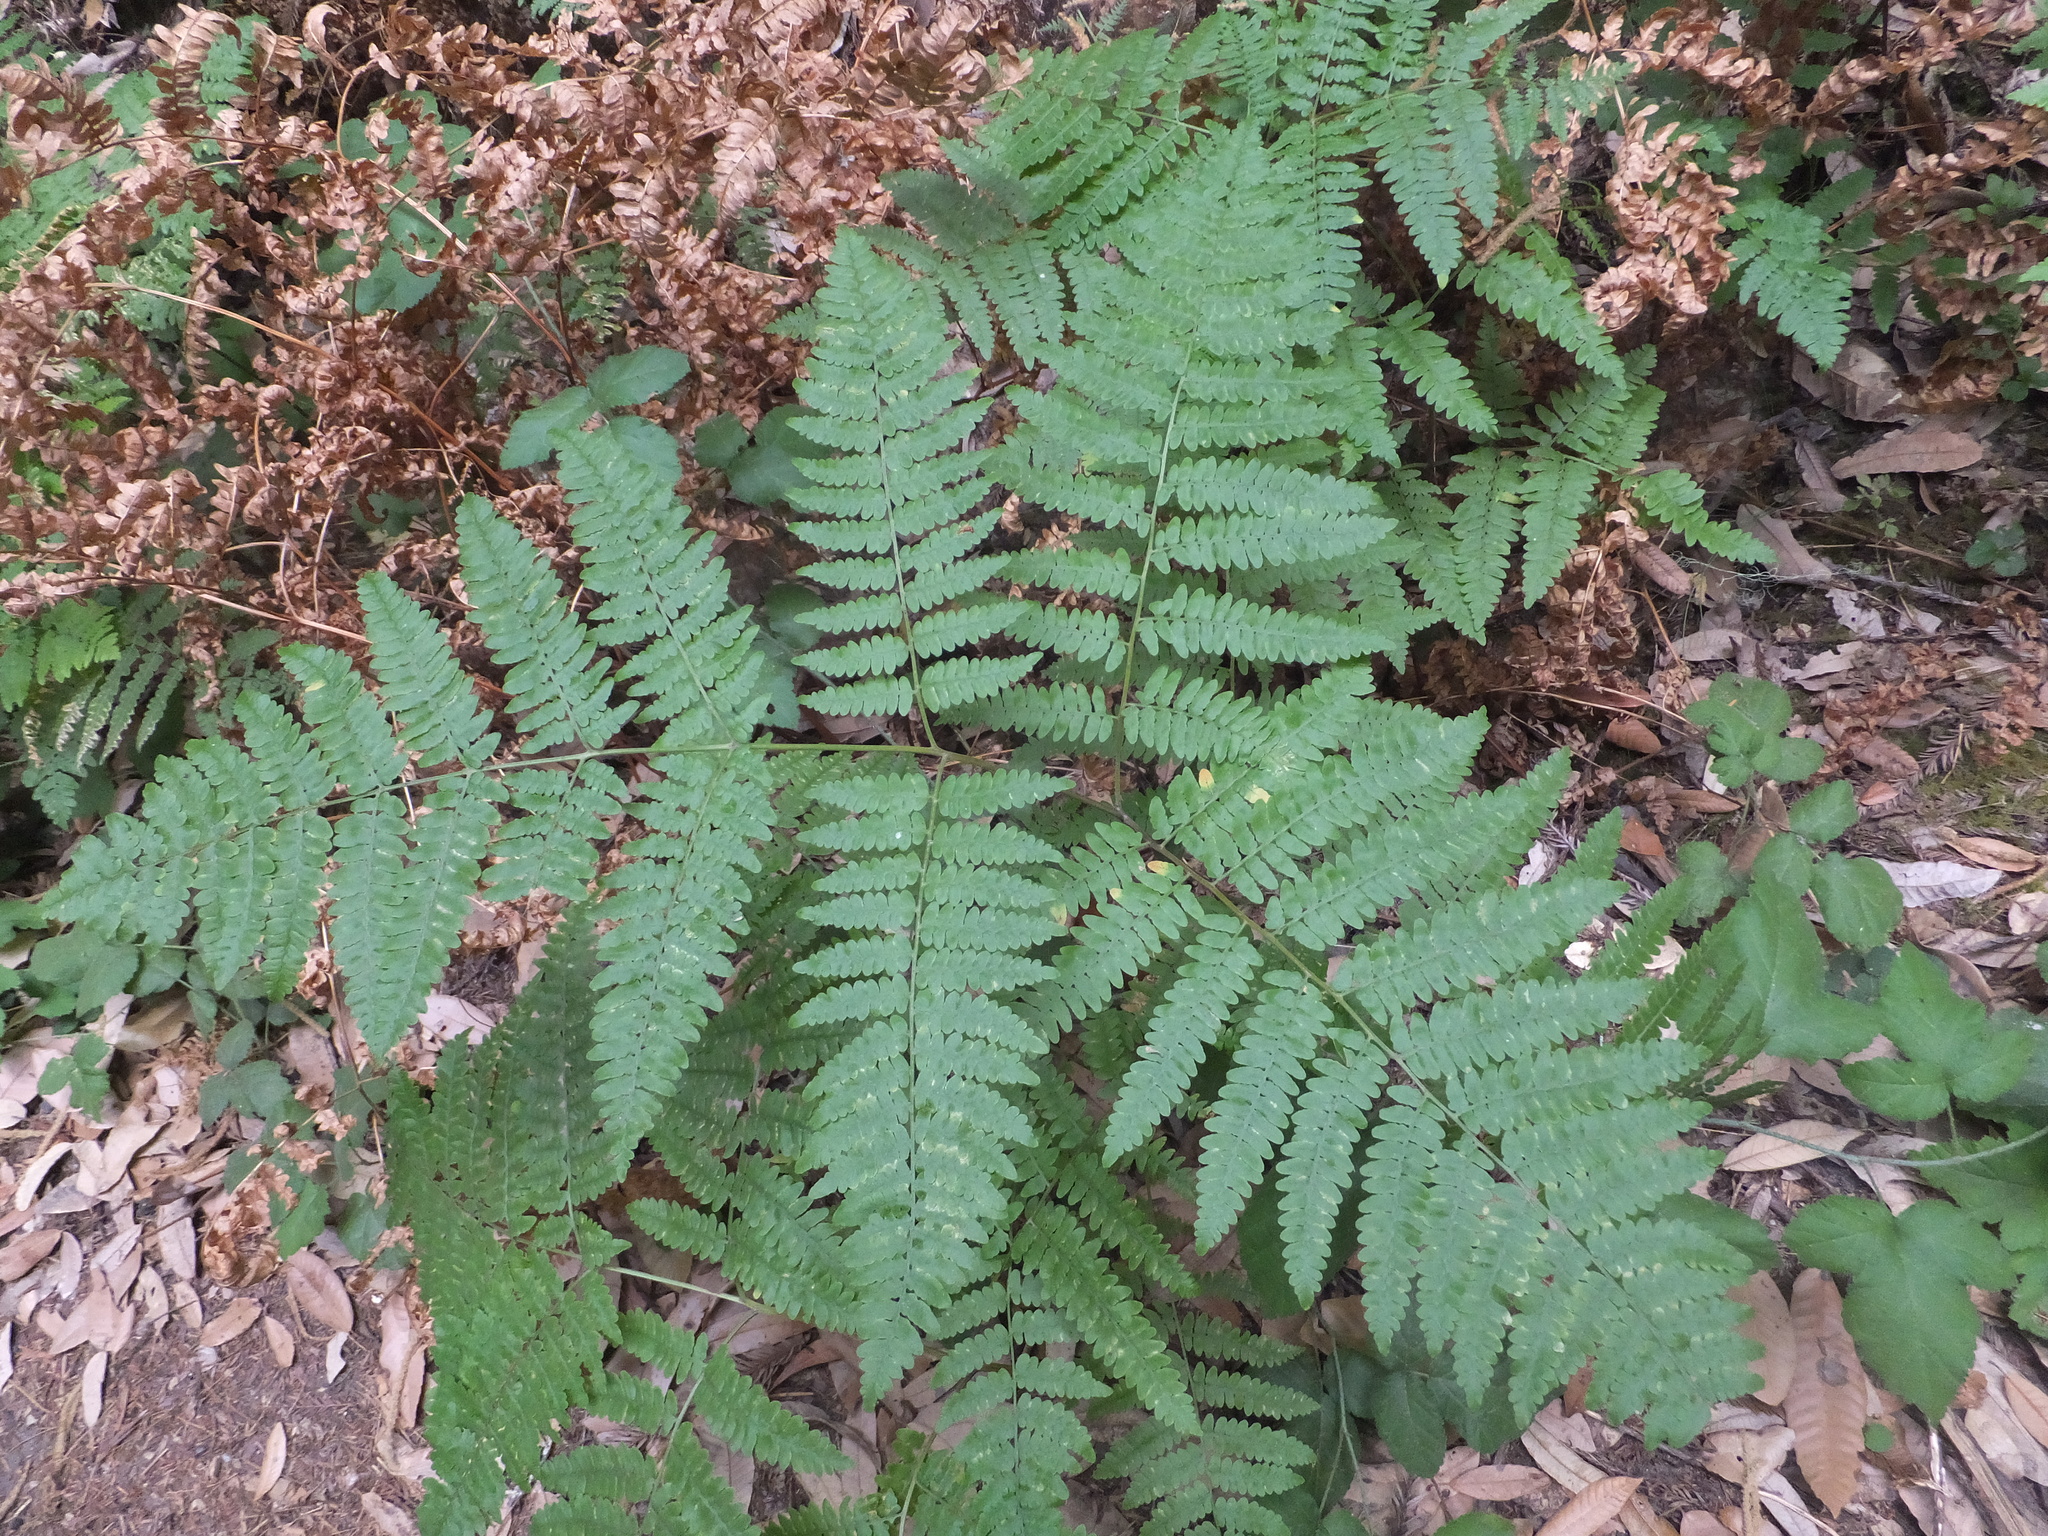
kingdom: Plantae
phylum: Tracheophyta
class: Polypodiopsida
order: Polypodiales
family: Dennstaedtiaceae
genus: Pteridium
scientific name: Pteridium aquilinum
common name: Bracken
